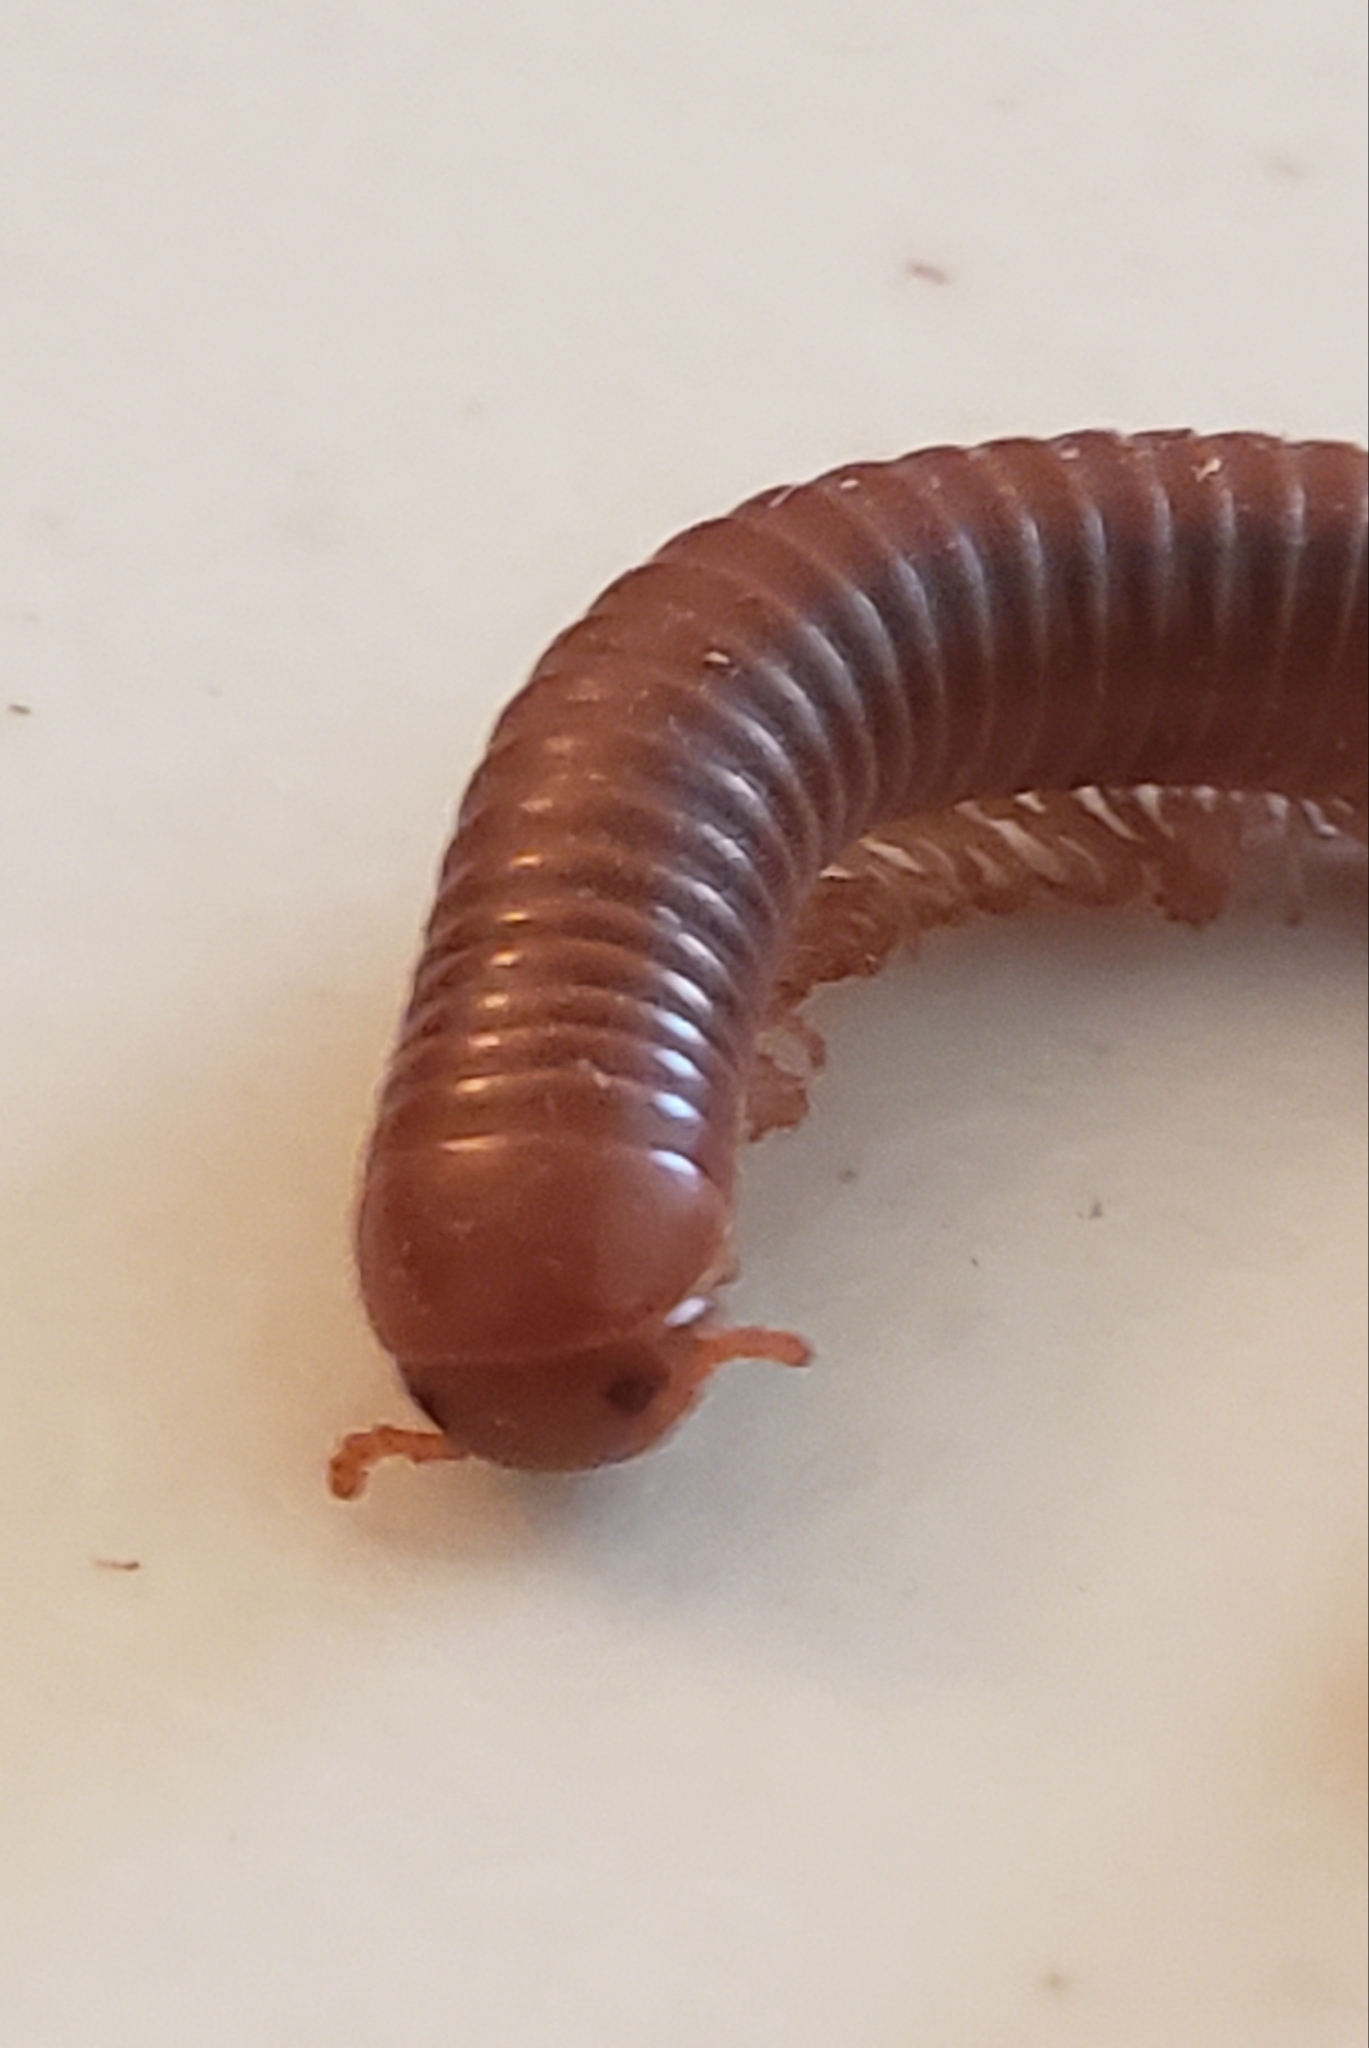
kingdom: Animalia
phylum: Arthropoda
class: Diplopoda
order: Spirobolida
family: Pachybolidae
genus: Trigoniulus
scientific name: Trigoniulus corallinus
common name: Millipede
